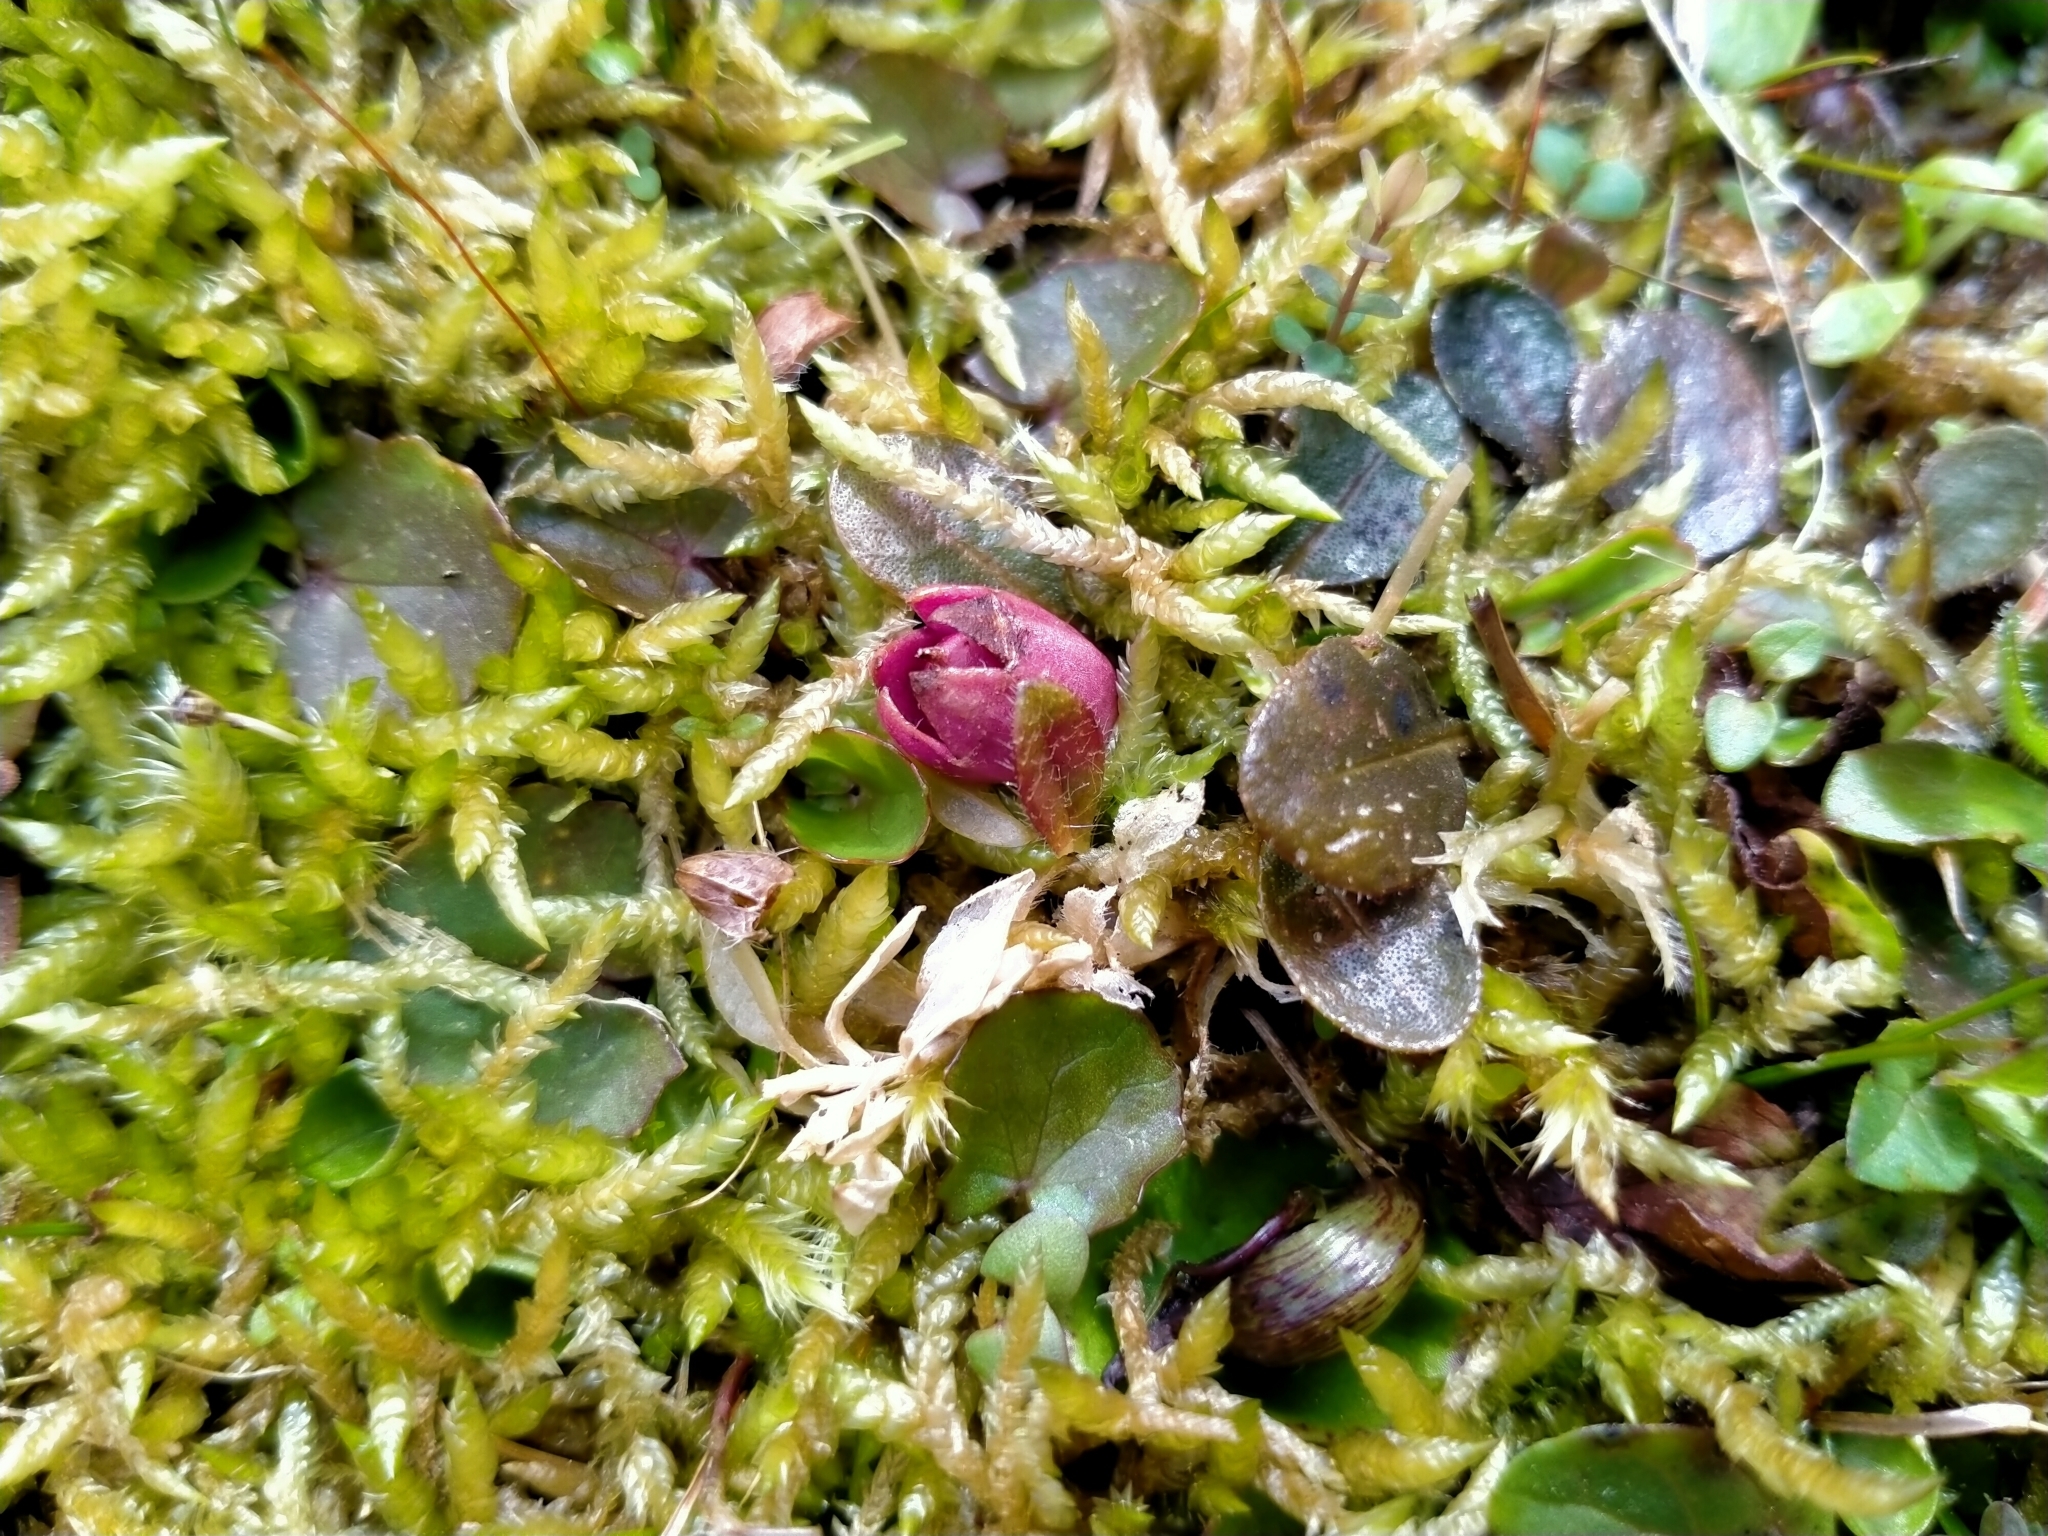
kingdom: Plantae
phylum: Tracheophyta
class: Magnoliopsida
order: Lamiales
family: Mazaceae
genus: Mazus
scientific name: Mazus arenarius
